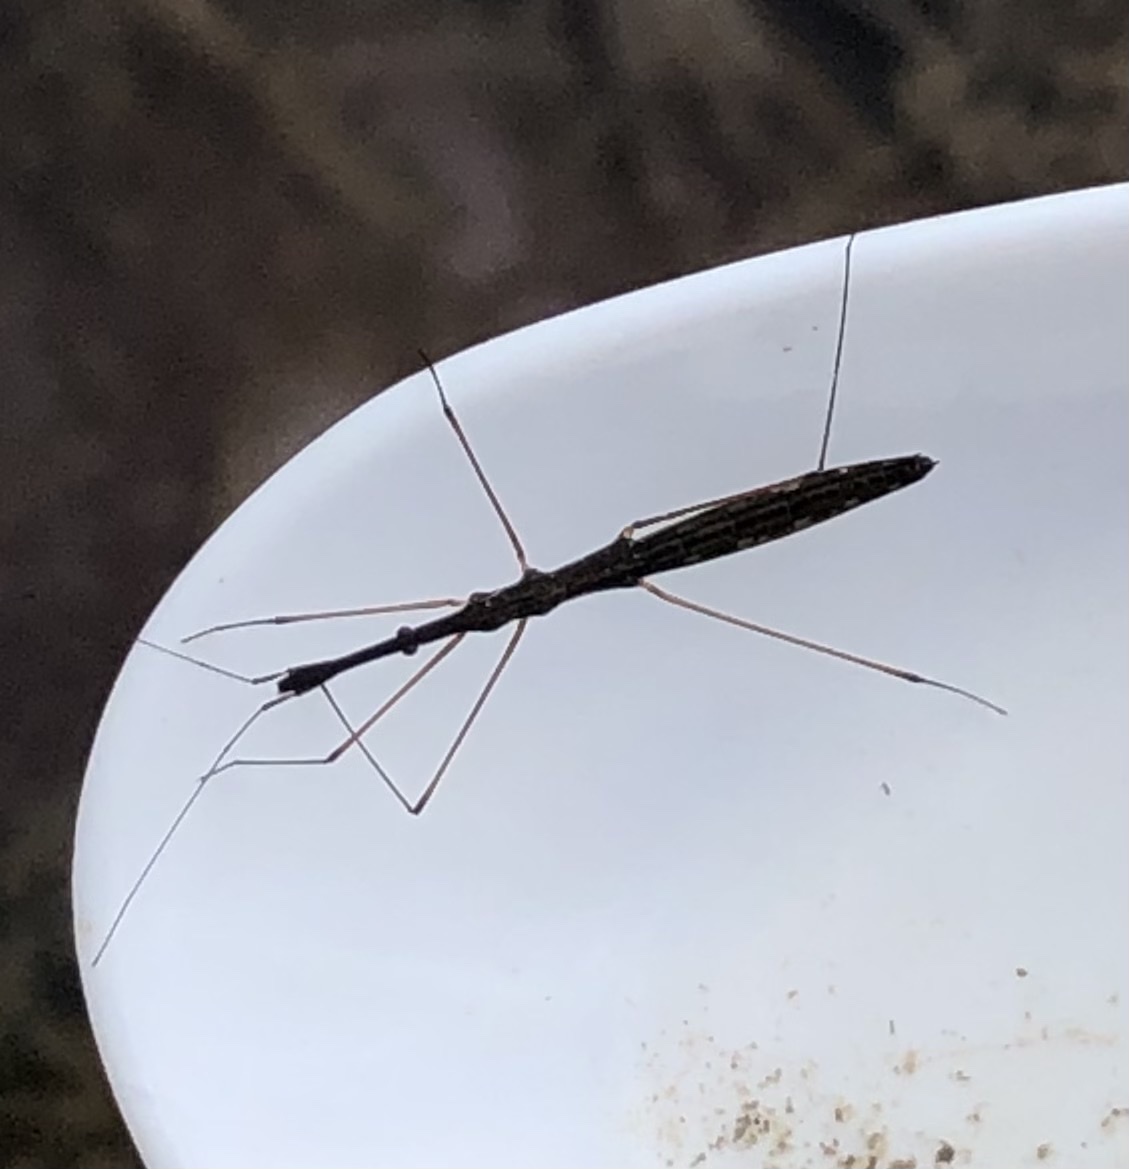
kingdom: Animalia
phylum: Arthropoda
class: Insecta
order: Hemiptera
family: Hydrometridae
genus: Hydrometra
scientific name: Hydrometra stagnorum
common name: Water measurer
